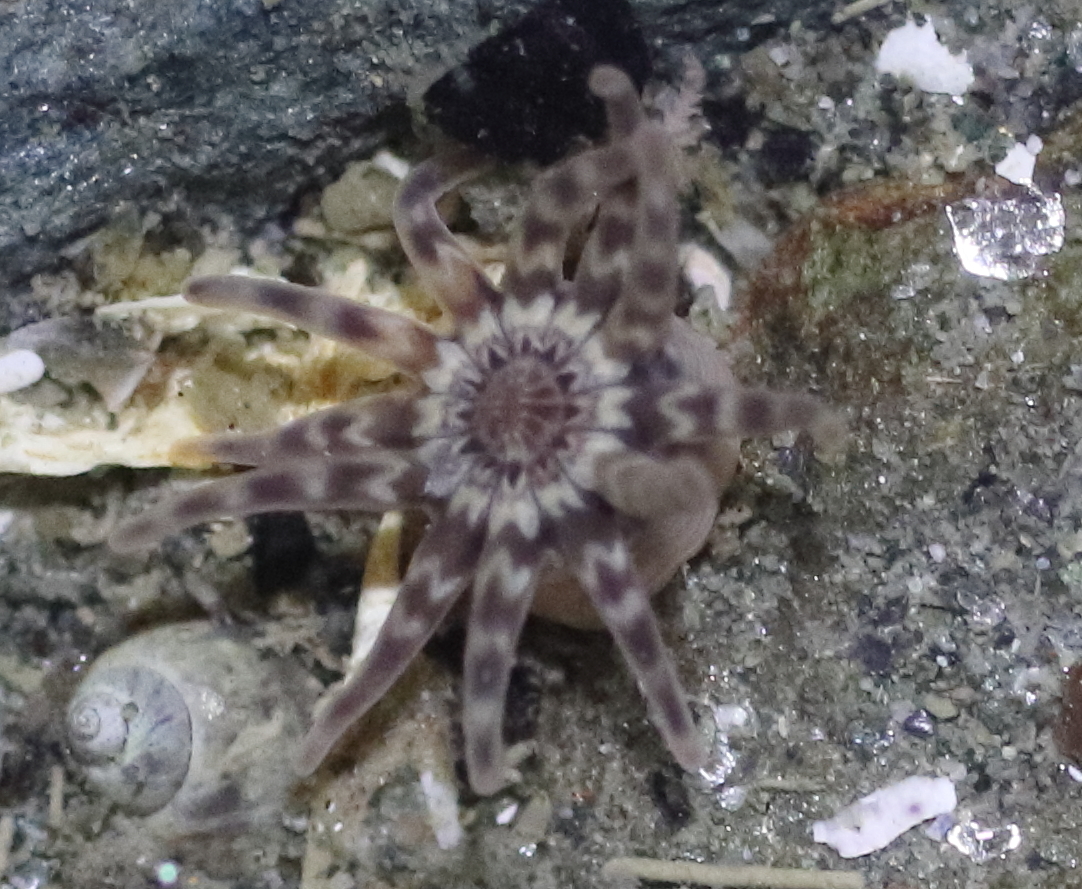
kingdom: Animalia
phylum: Cnidaria
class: Anthozoa
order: Actiniaria
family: Peachiidae
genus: Peachia
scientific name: Peachia quinquecapitata
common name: Twelve-tentacled parasitic anemone
